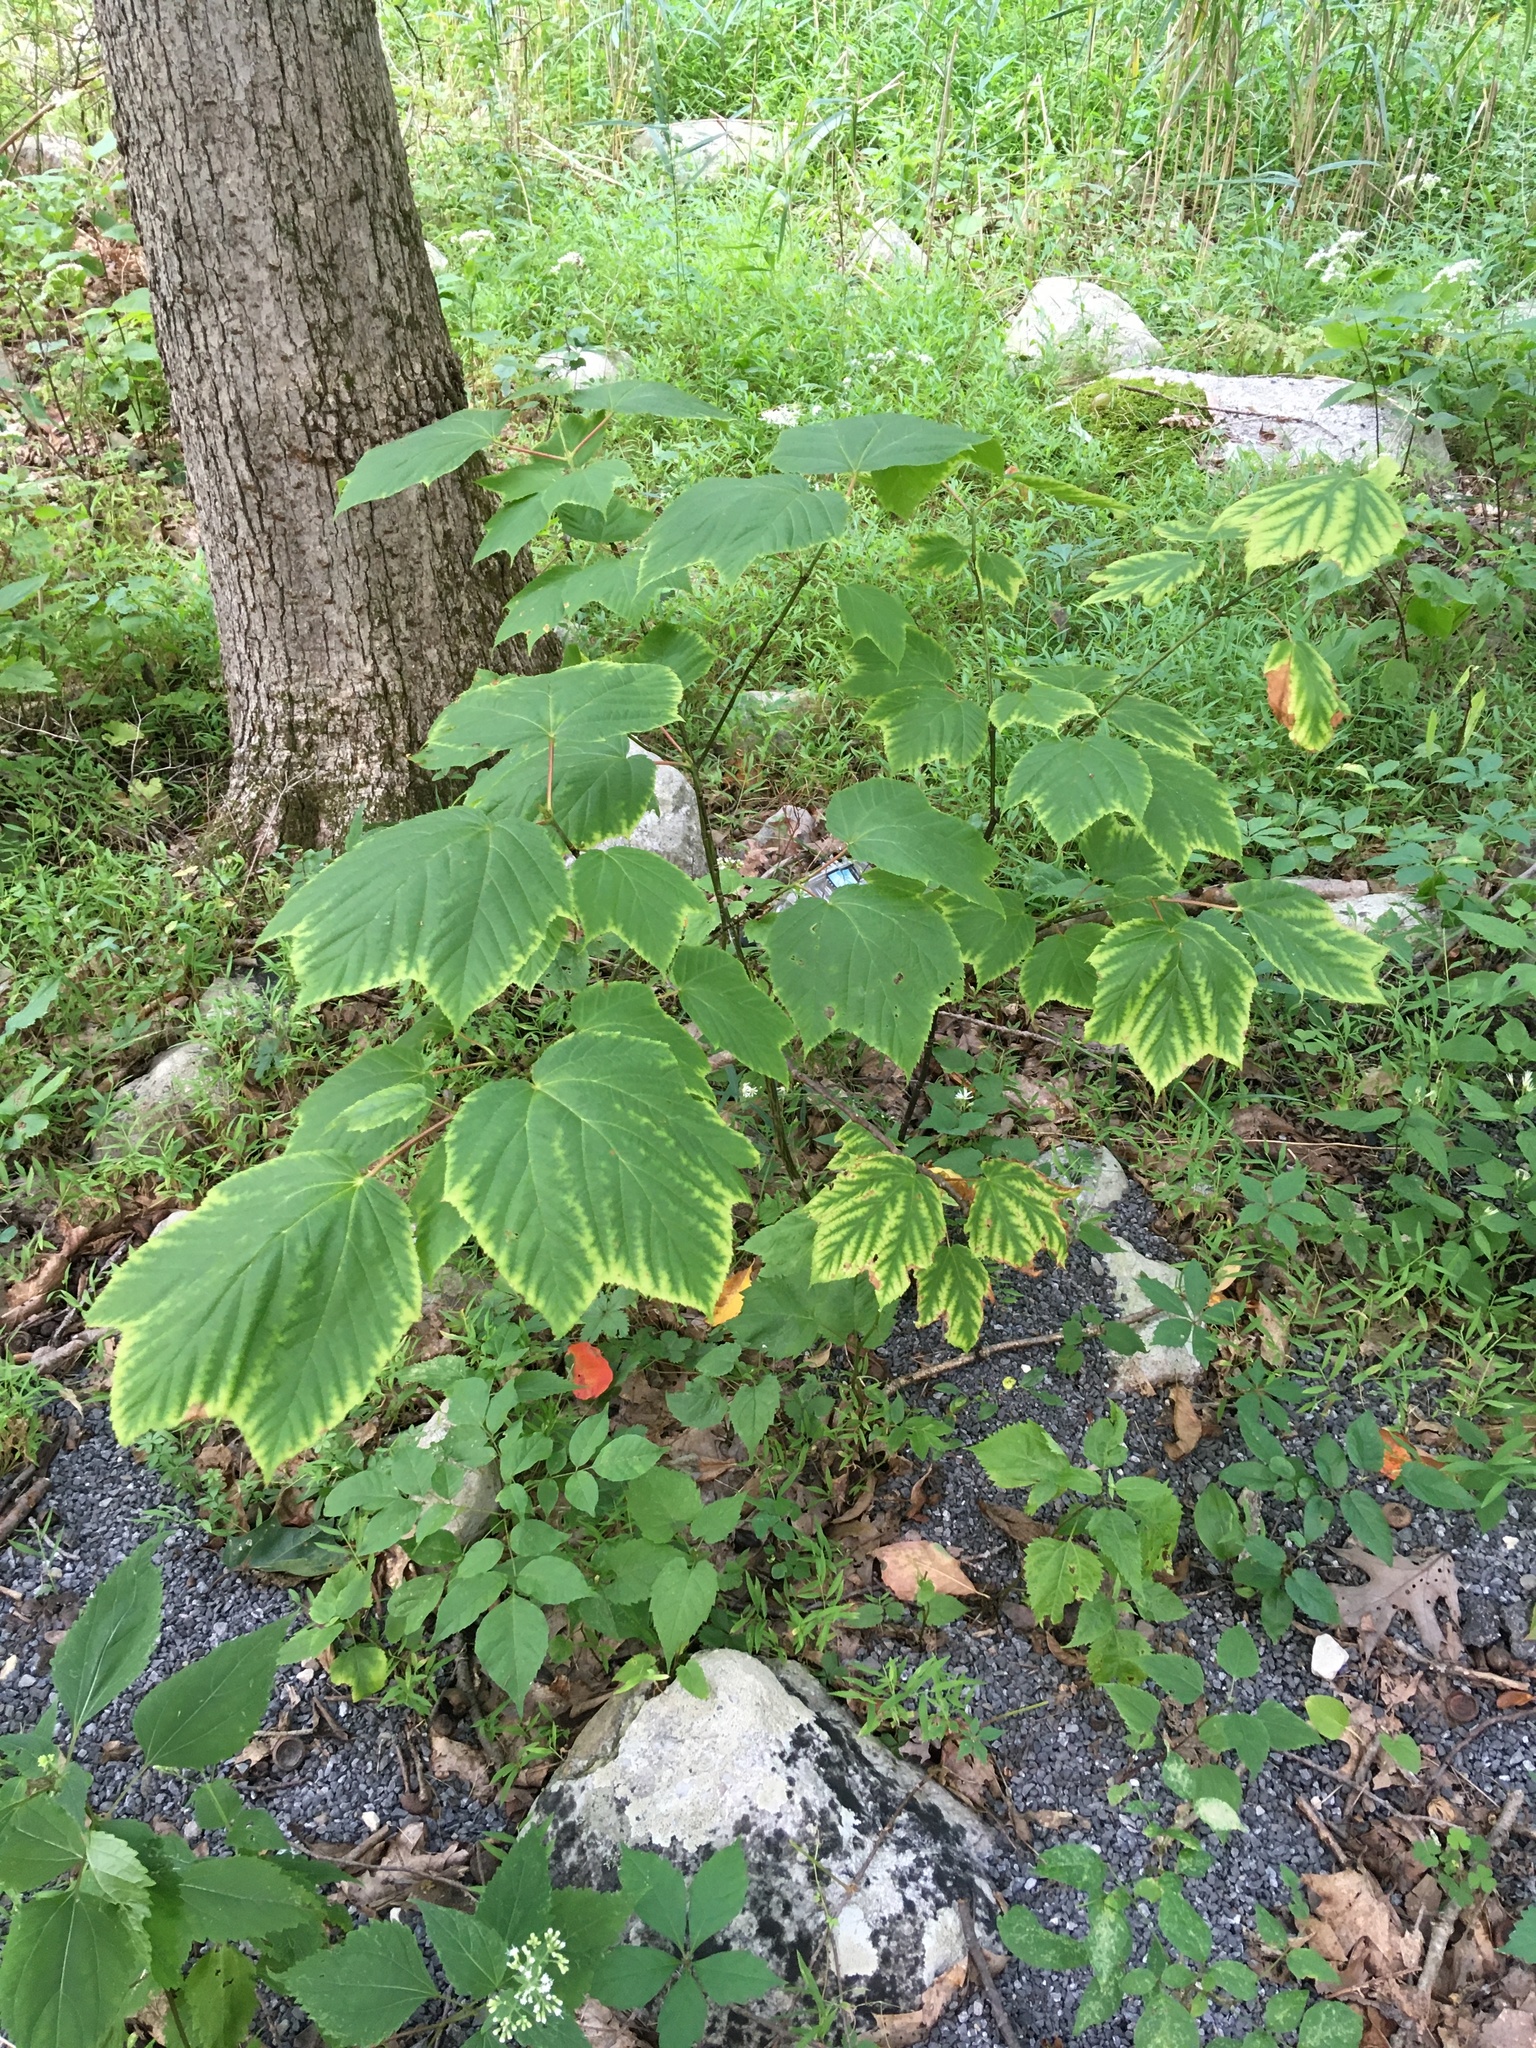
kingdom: Plantae
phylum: Tracheophyta
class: Magnoliopsida
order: Sapindales
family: Sapindaceae
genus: Acer
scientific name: Acer pensylvanicum
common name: Moosewood
